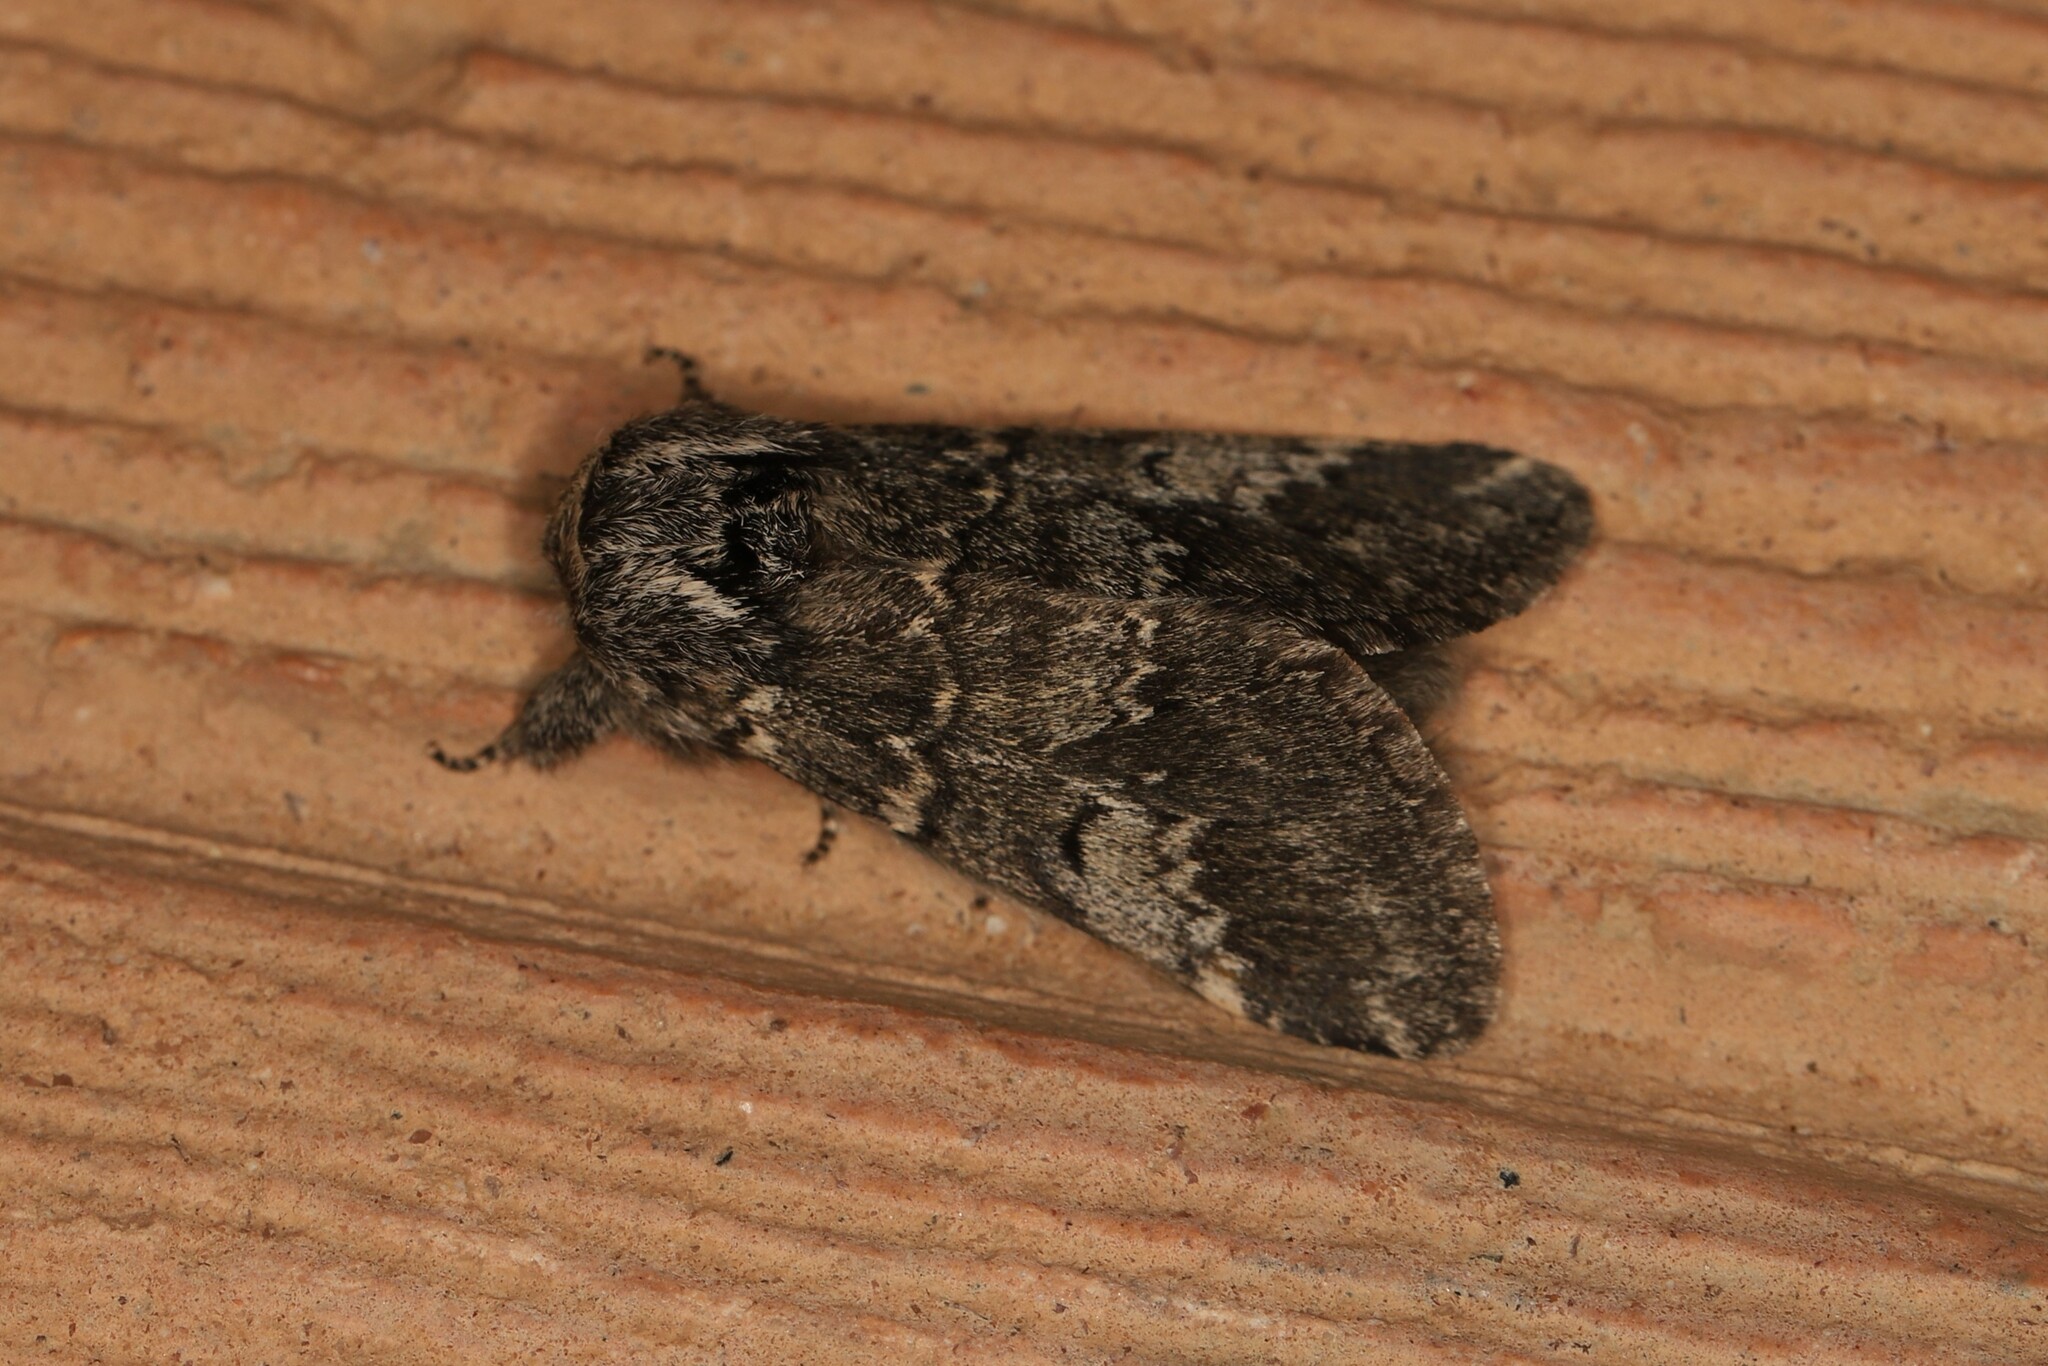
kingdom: Animalia
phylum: Arthropoda
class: Insecta
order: Lepidoptera
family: Notodontidae
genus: Drymonia
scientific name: Drymonia ruficornis
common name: Lunar marbled brown
